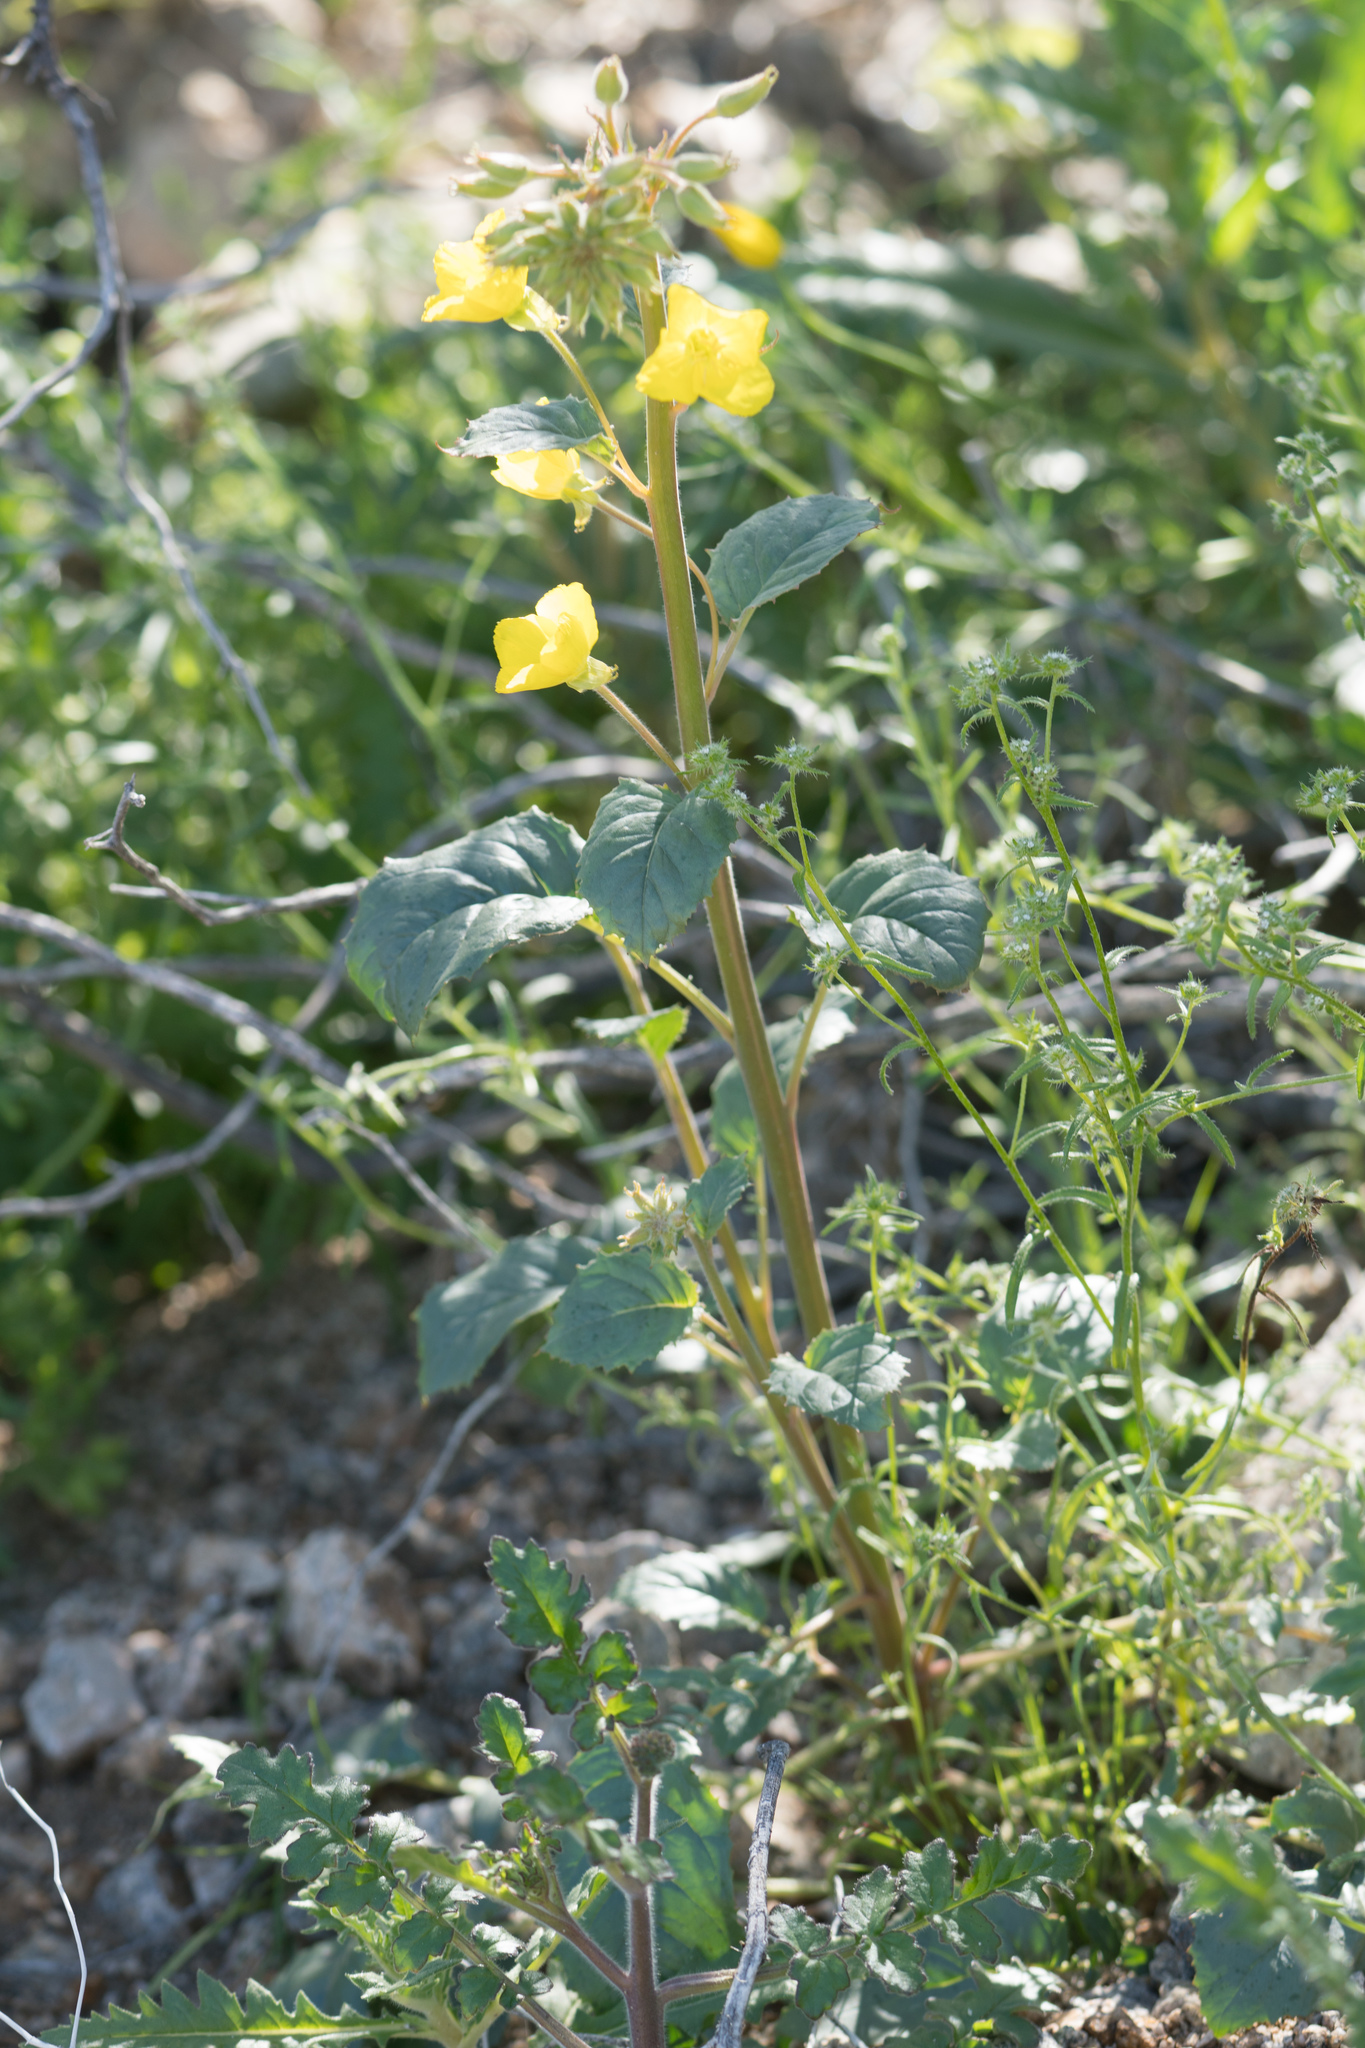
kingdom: Plantae
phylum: Tracheophyta
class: Magnoliopsida
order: Myrtales
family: Onagraceae
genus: Chylismia
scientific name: Chylismia brevipes
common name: Yellow cups
